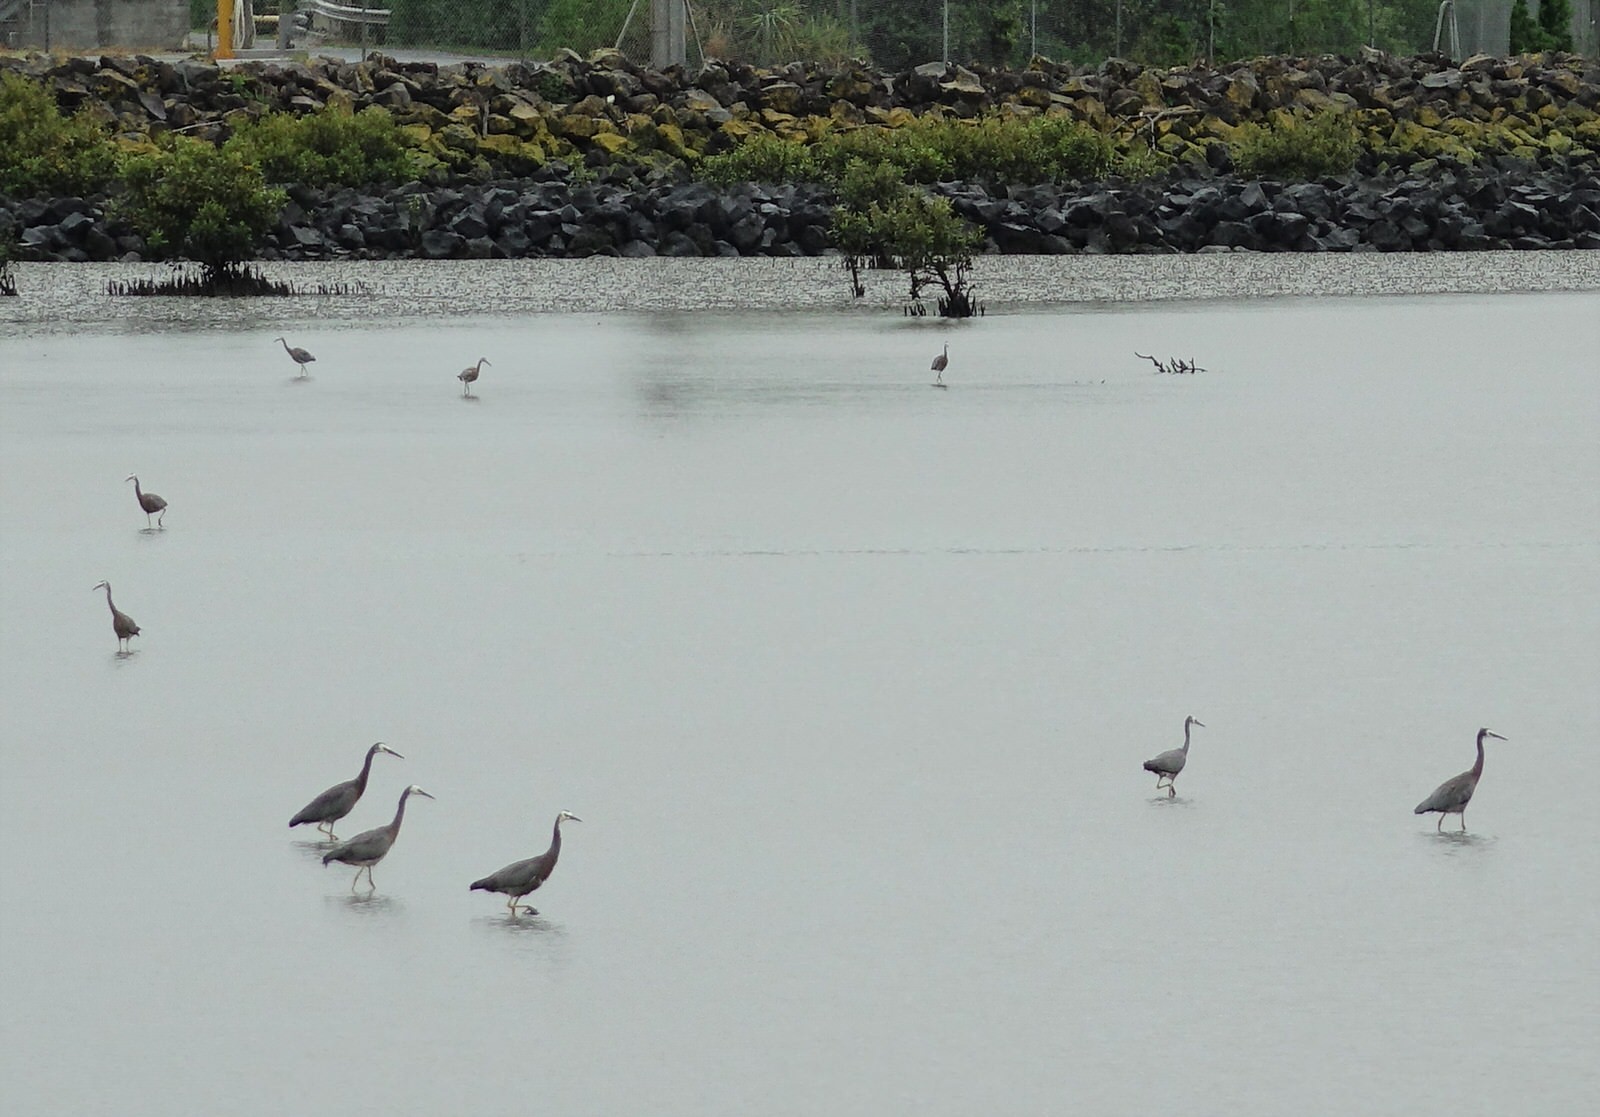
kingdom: Animalia
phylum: Chordata
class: Aves
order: Pelecaniformes
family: Ardeidae
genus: Egretta
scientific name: Egretta novaehollandiae
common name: White-faced heron
